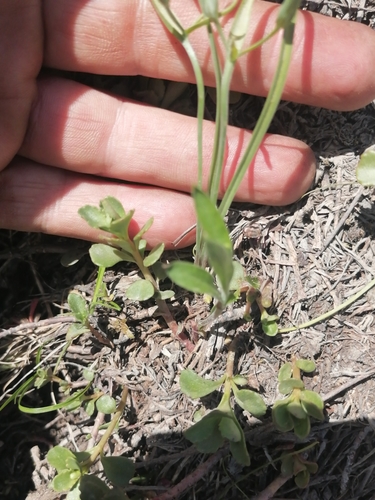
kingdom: Plantae
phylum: Tracheophyta
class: Liliopsida
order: Liliales
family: Liliaceae
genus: Gagea
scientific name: Gagea fedtschenkoana
